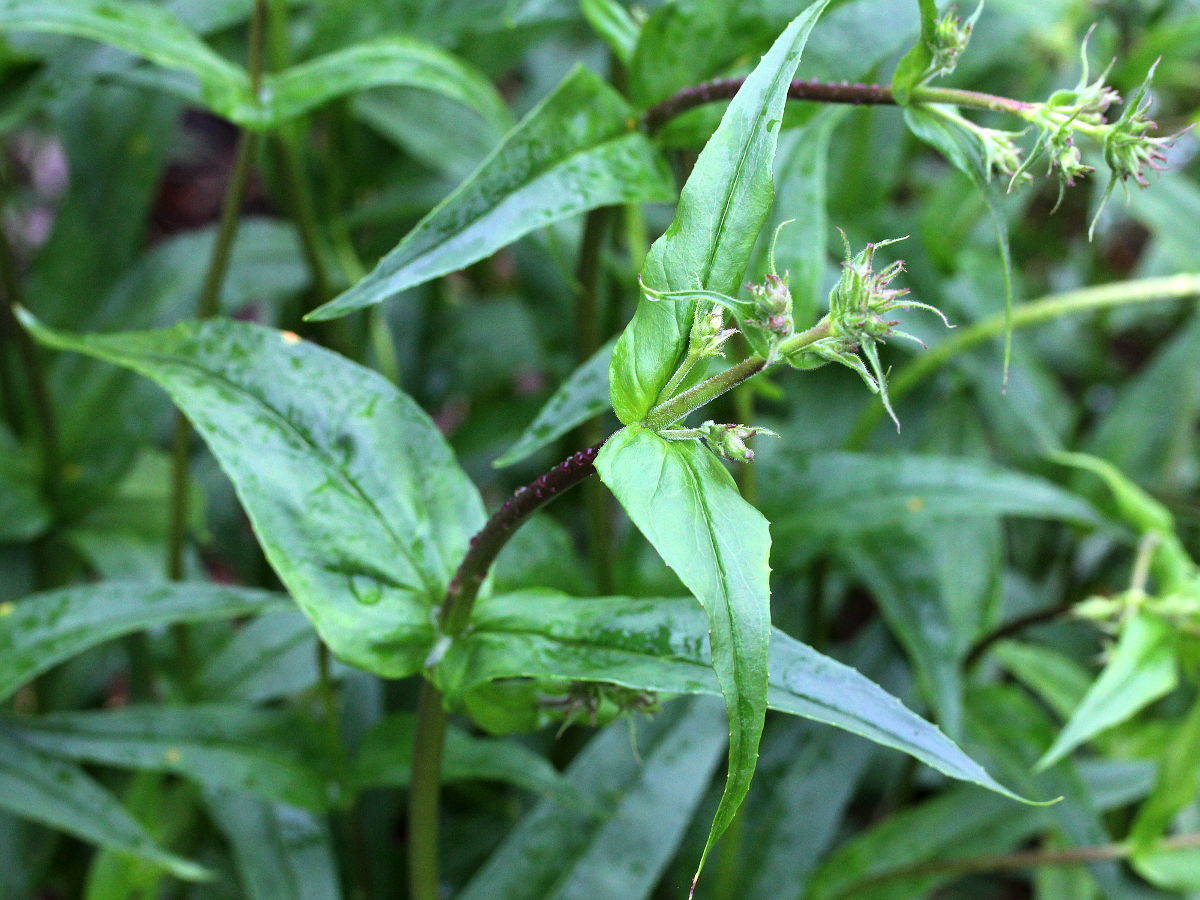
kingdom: Plantae
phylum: Tracheophyta
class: Magnoliopsida
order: Lamiales
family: Plantaginaceae
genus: Penstemon
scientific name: Penstemon digitalis
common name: Foxglove beardtongue
